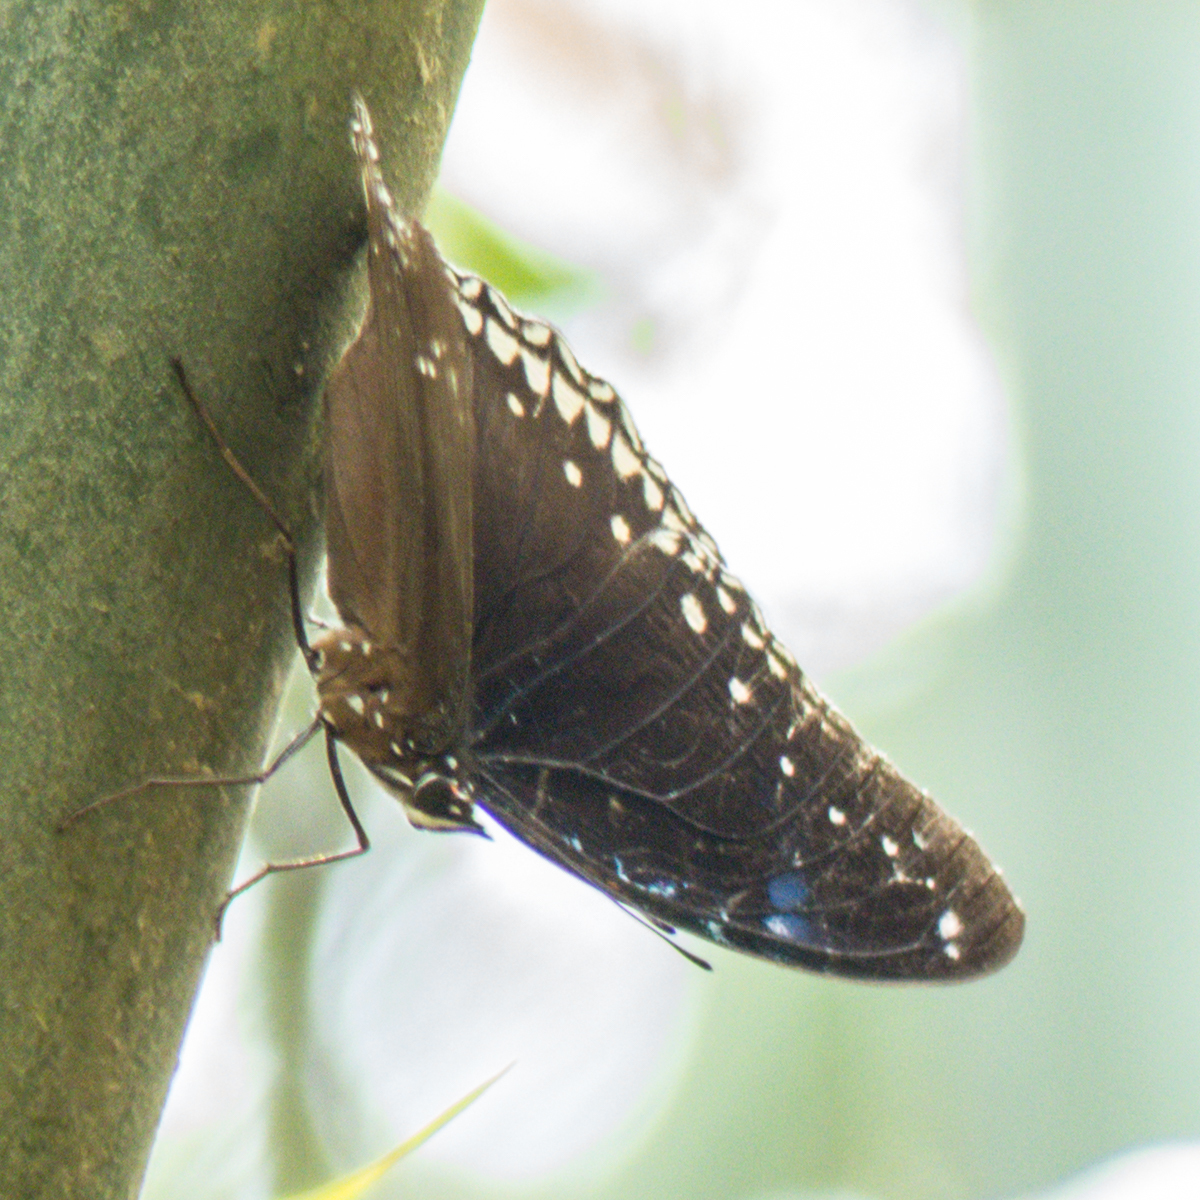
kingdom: Animalia
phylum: Arthropoda
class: Insecta
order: Lepidoptera
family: Nymphalidae
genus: Hypolimnas
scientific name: Hypolimnas bolina
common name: Great eggfly
